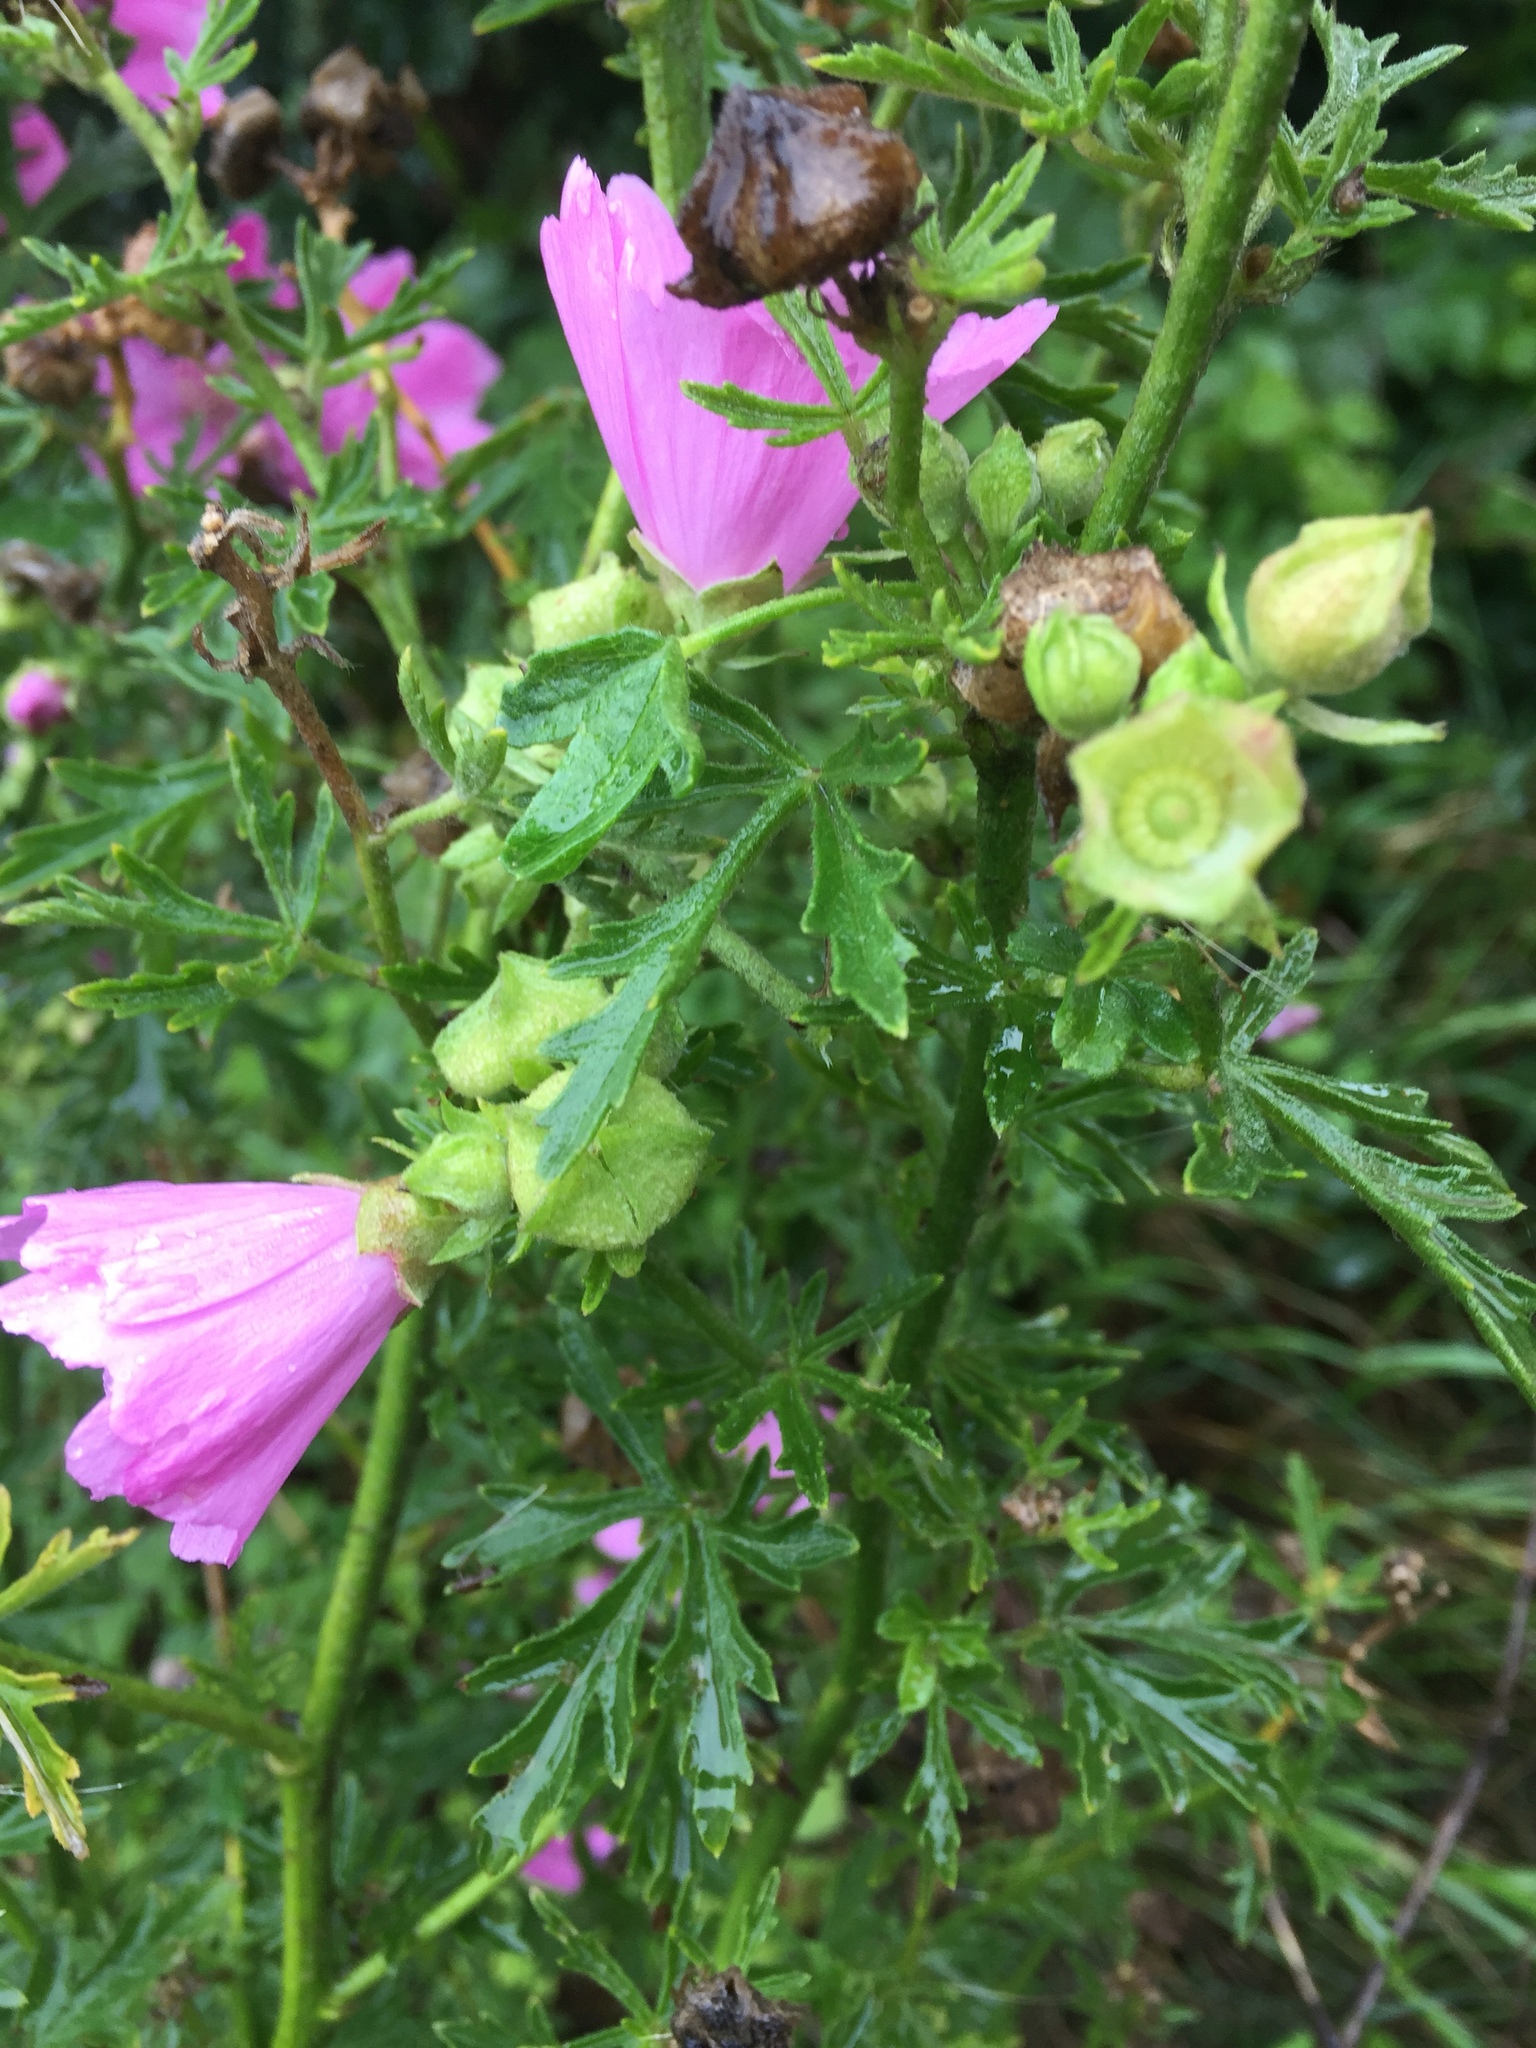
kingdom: Plantae
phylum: Tracheophyta
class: Magnoliopsida
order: Malvales
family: Malvaceae
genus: Malva
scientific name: Malva alcea
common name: Greater musk-mallow
